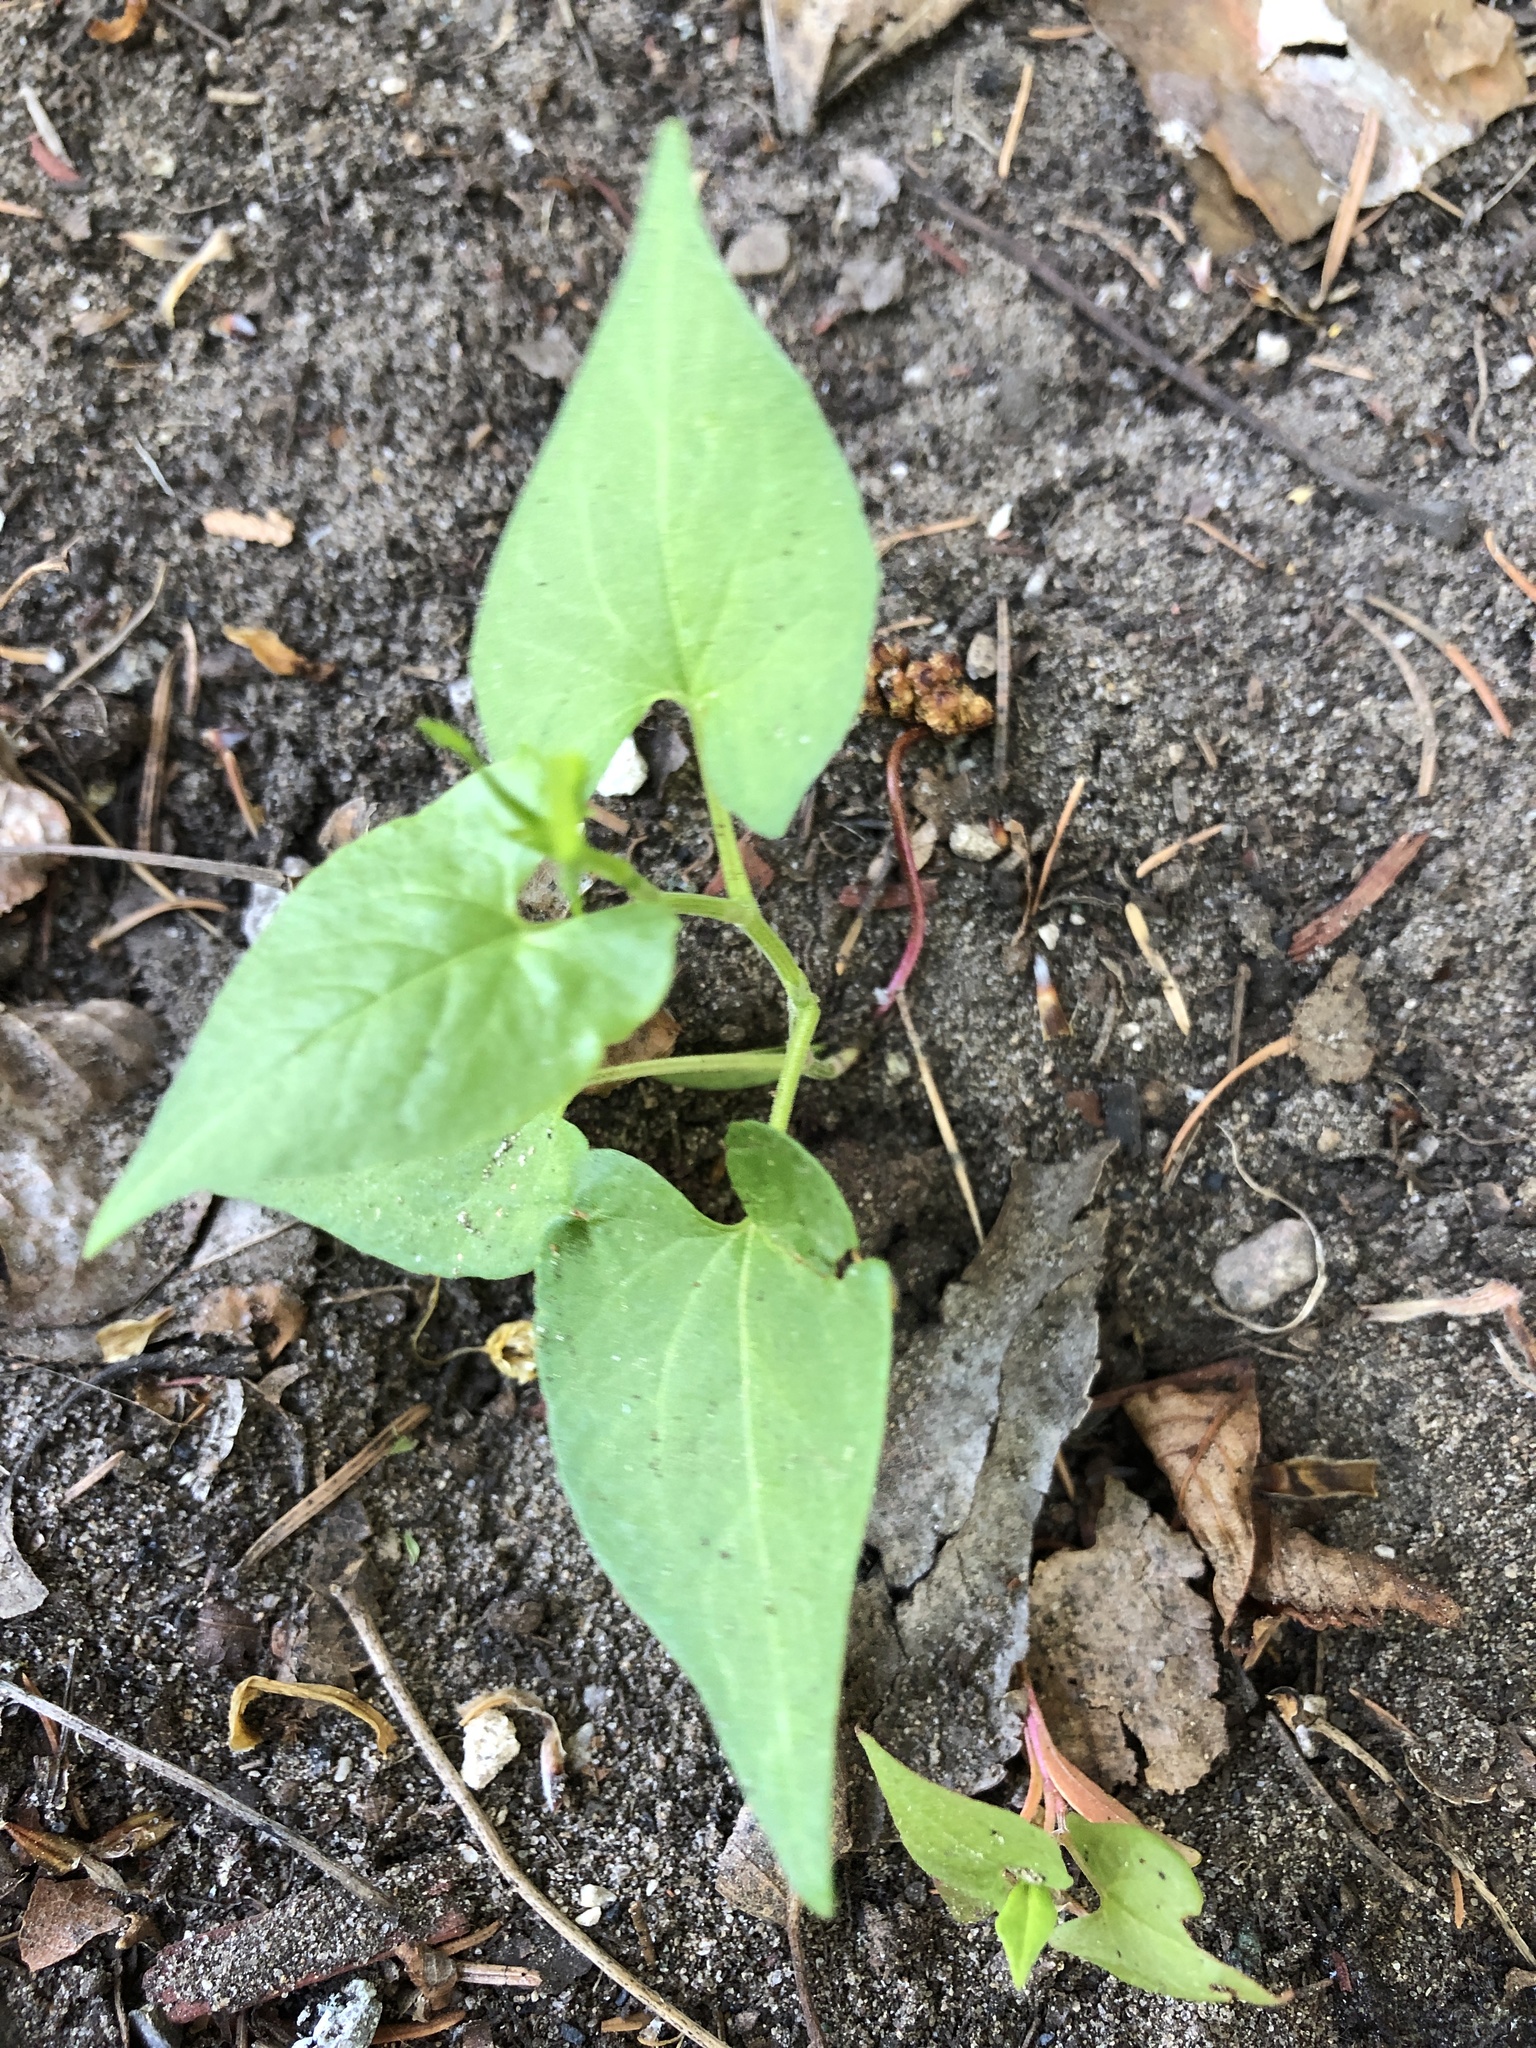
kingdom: Plantae
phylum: Tracheophyta
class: Magnoliopsida
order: Caryophyllales
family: Polygonaceae
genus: Fallopia
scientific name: Fallopia convolvulus
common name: Black bindweed
